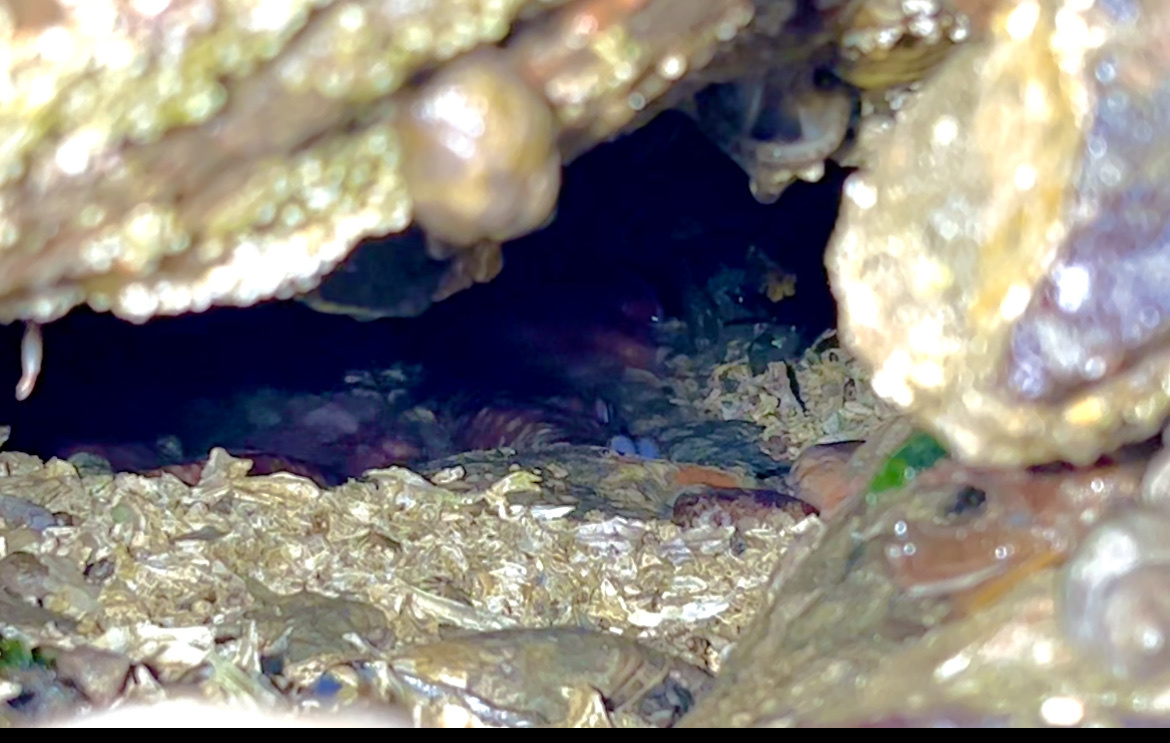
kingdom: Animalia
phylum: Mollusca
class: Cephalopoda
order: Octopoda
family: Enteroctopodidae
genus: Enteroctopus
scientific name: Enteroctopus dofleini
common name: Giant north pacific octopus
